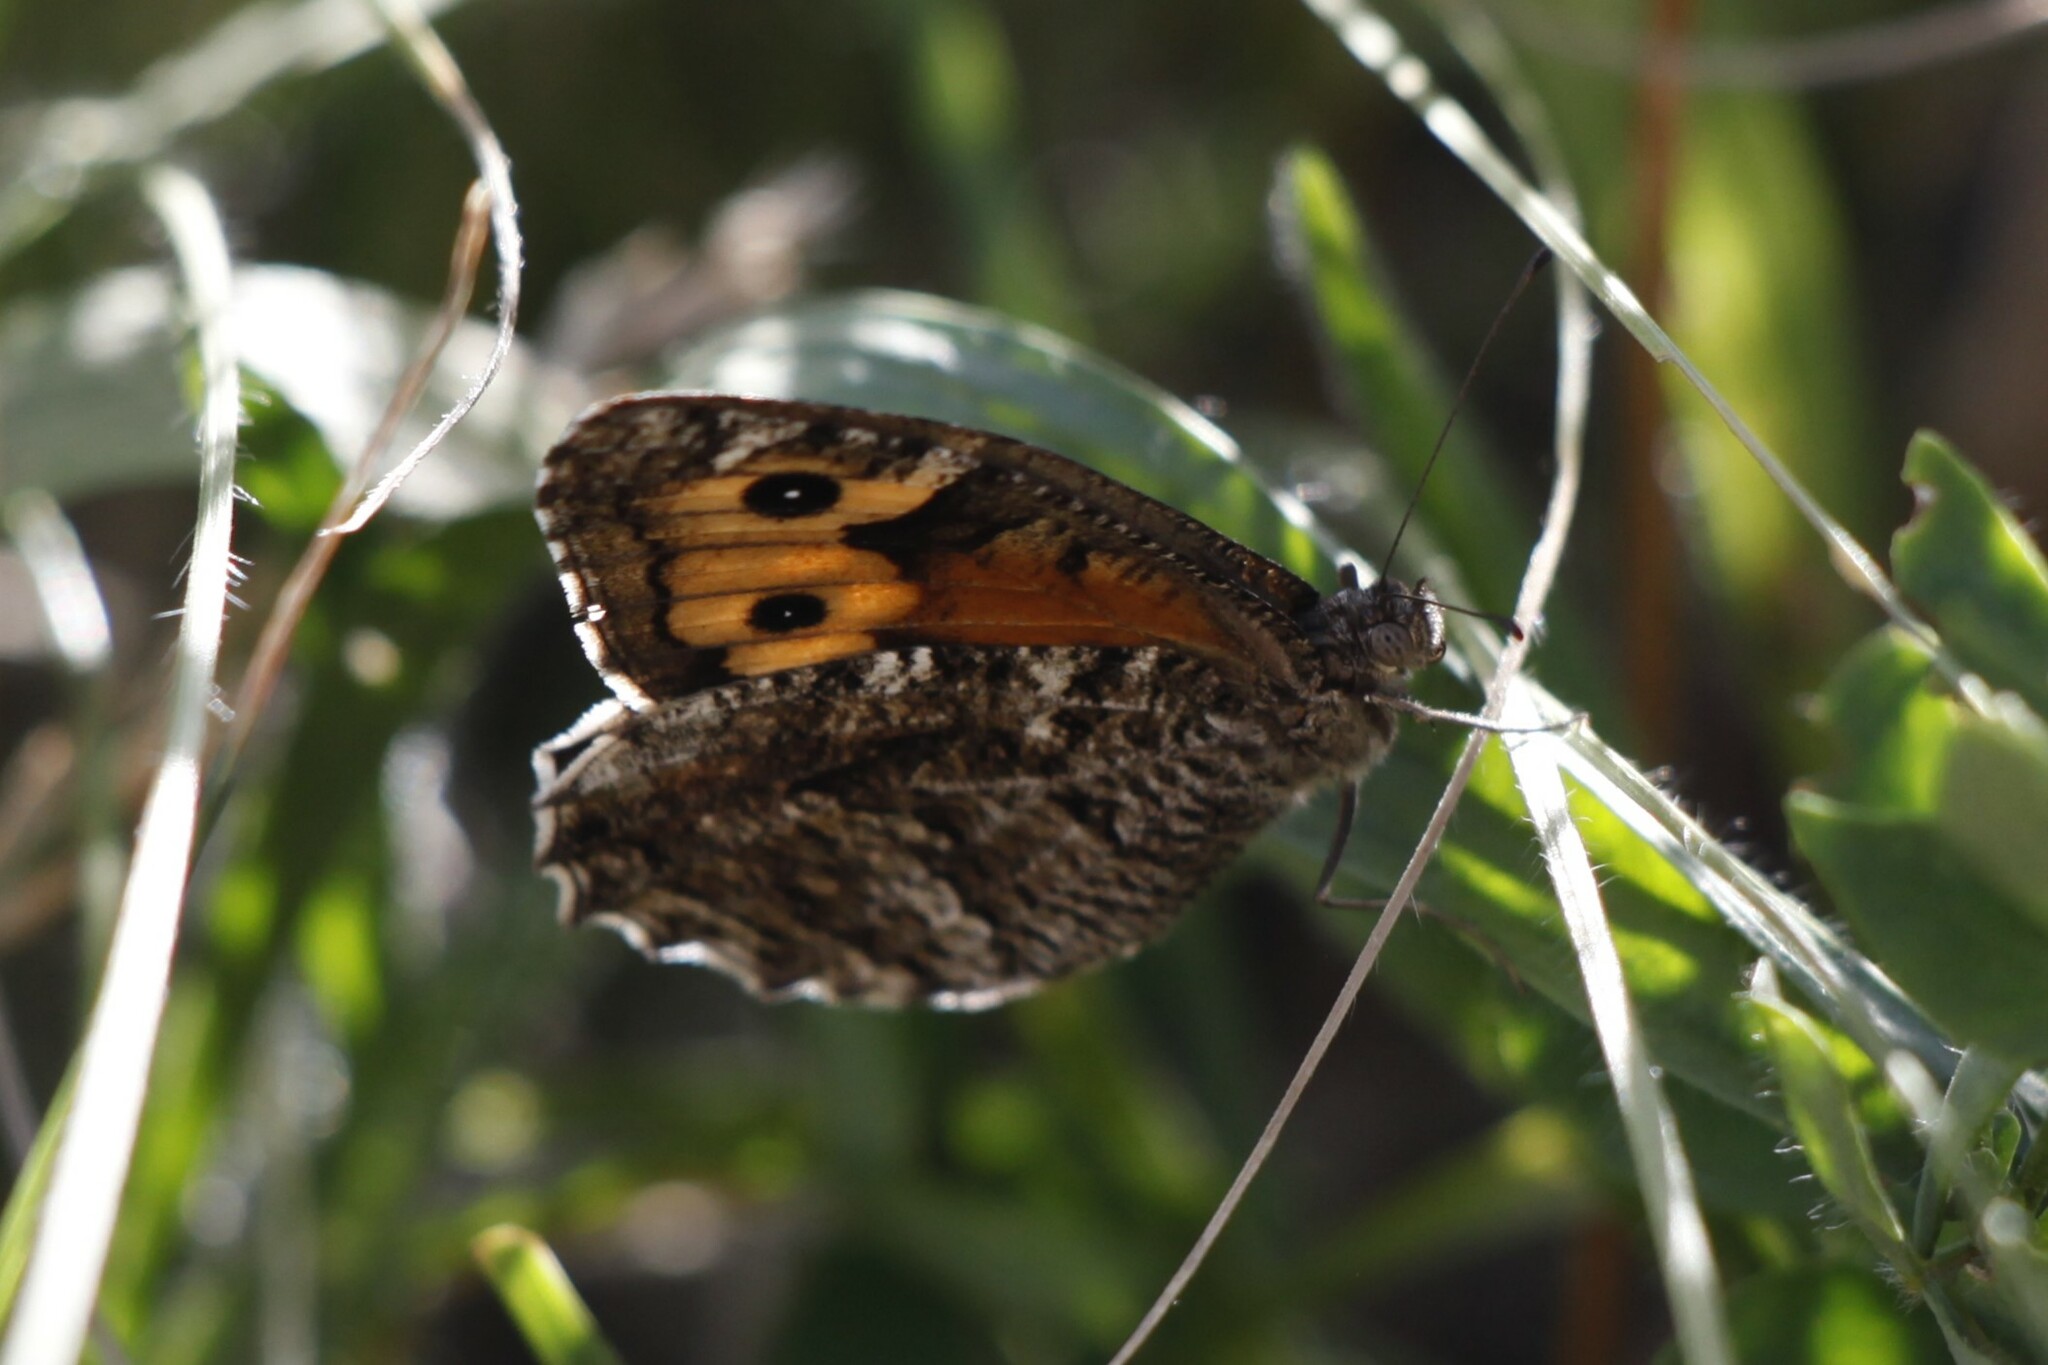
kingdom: Animalia
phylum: Arthropoda
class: Insecta
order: Lepidoptera
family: Nymphalidae
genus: Hipparchia
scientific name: Hipparchia semele
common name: Grayling
